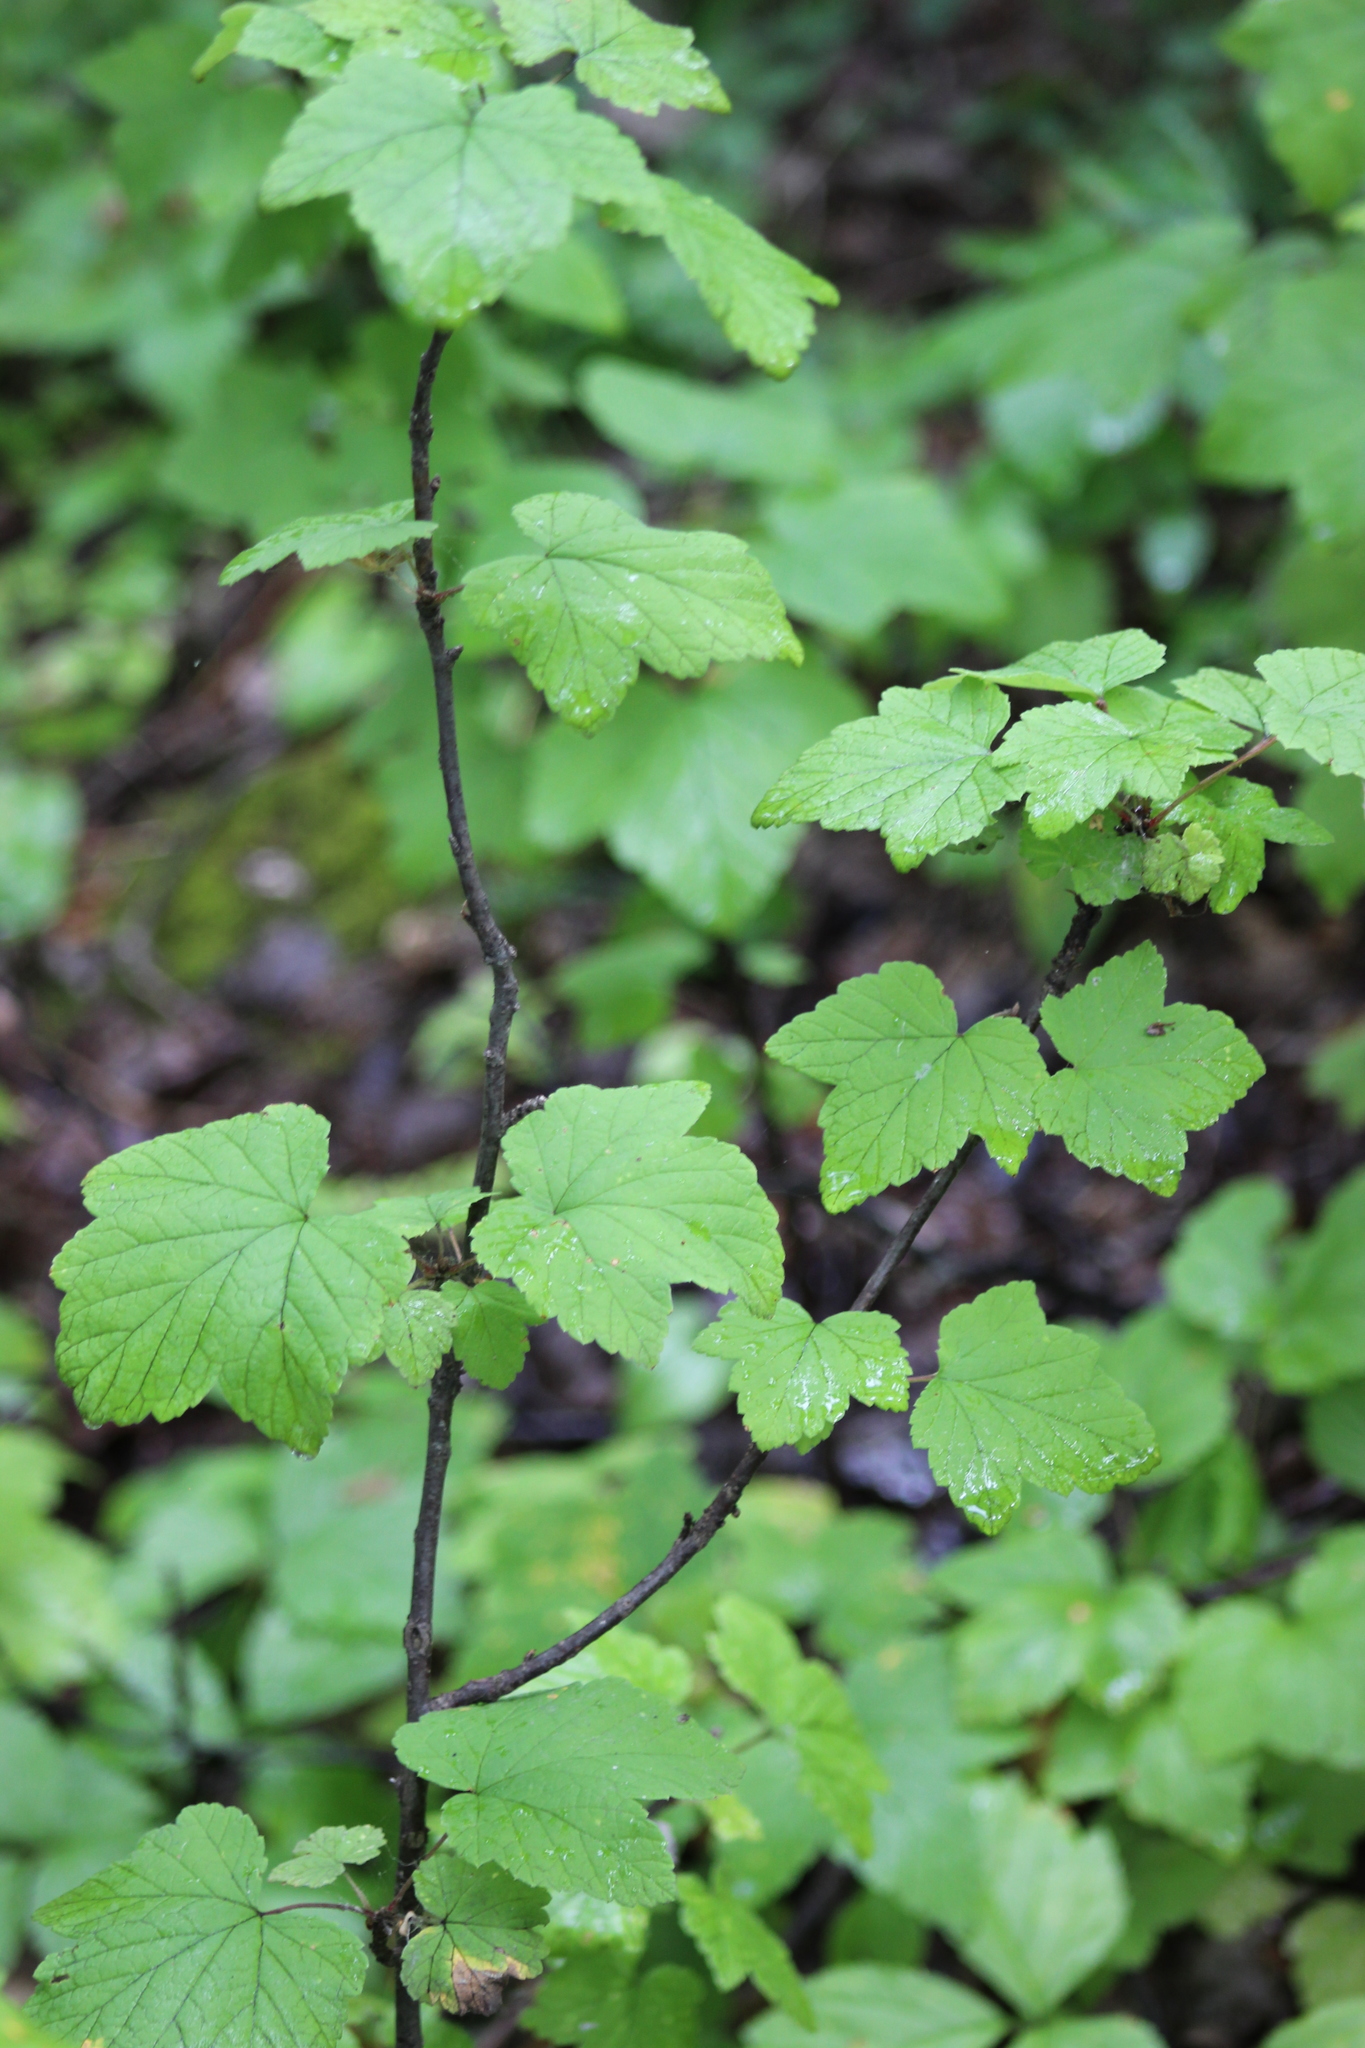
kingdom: Plantae
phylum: Tracheophyta
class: Magnoliopsida
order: Saxifragales
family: Grossulariaceae
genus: Ribes
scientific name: Ribes spicatum
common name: Downy currant
